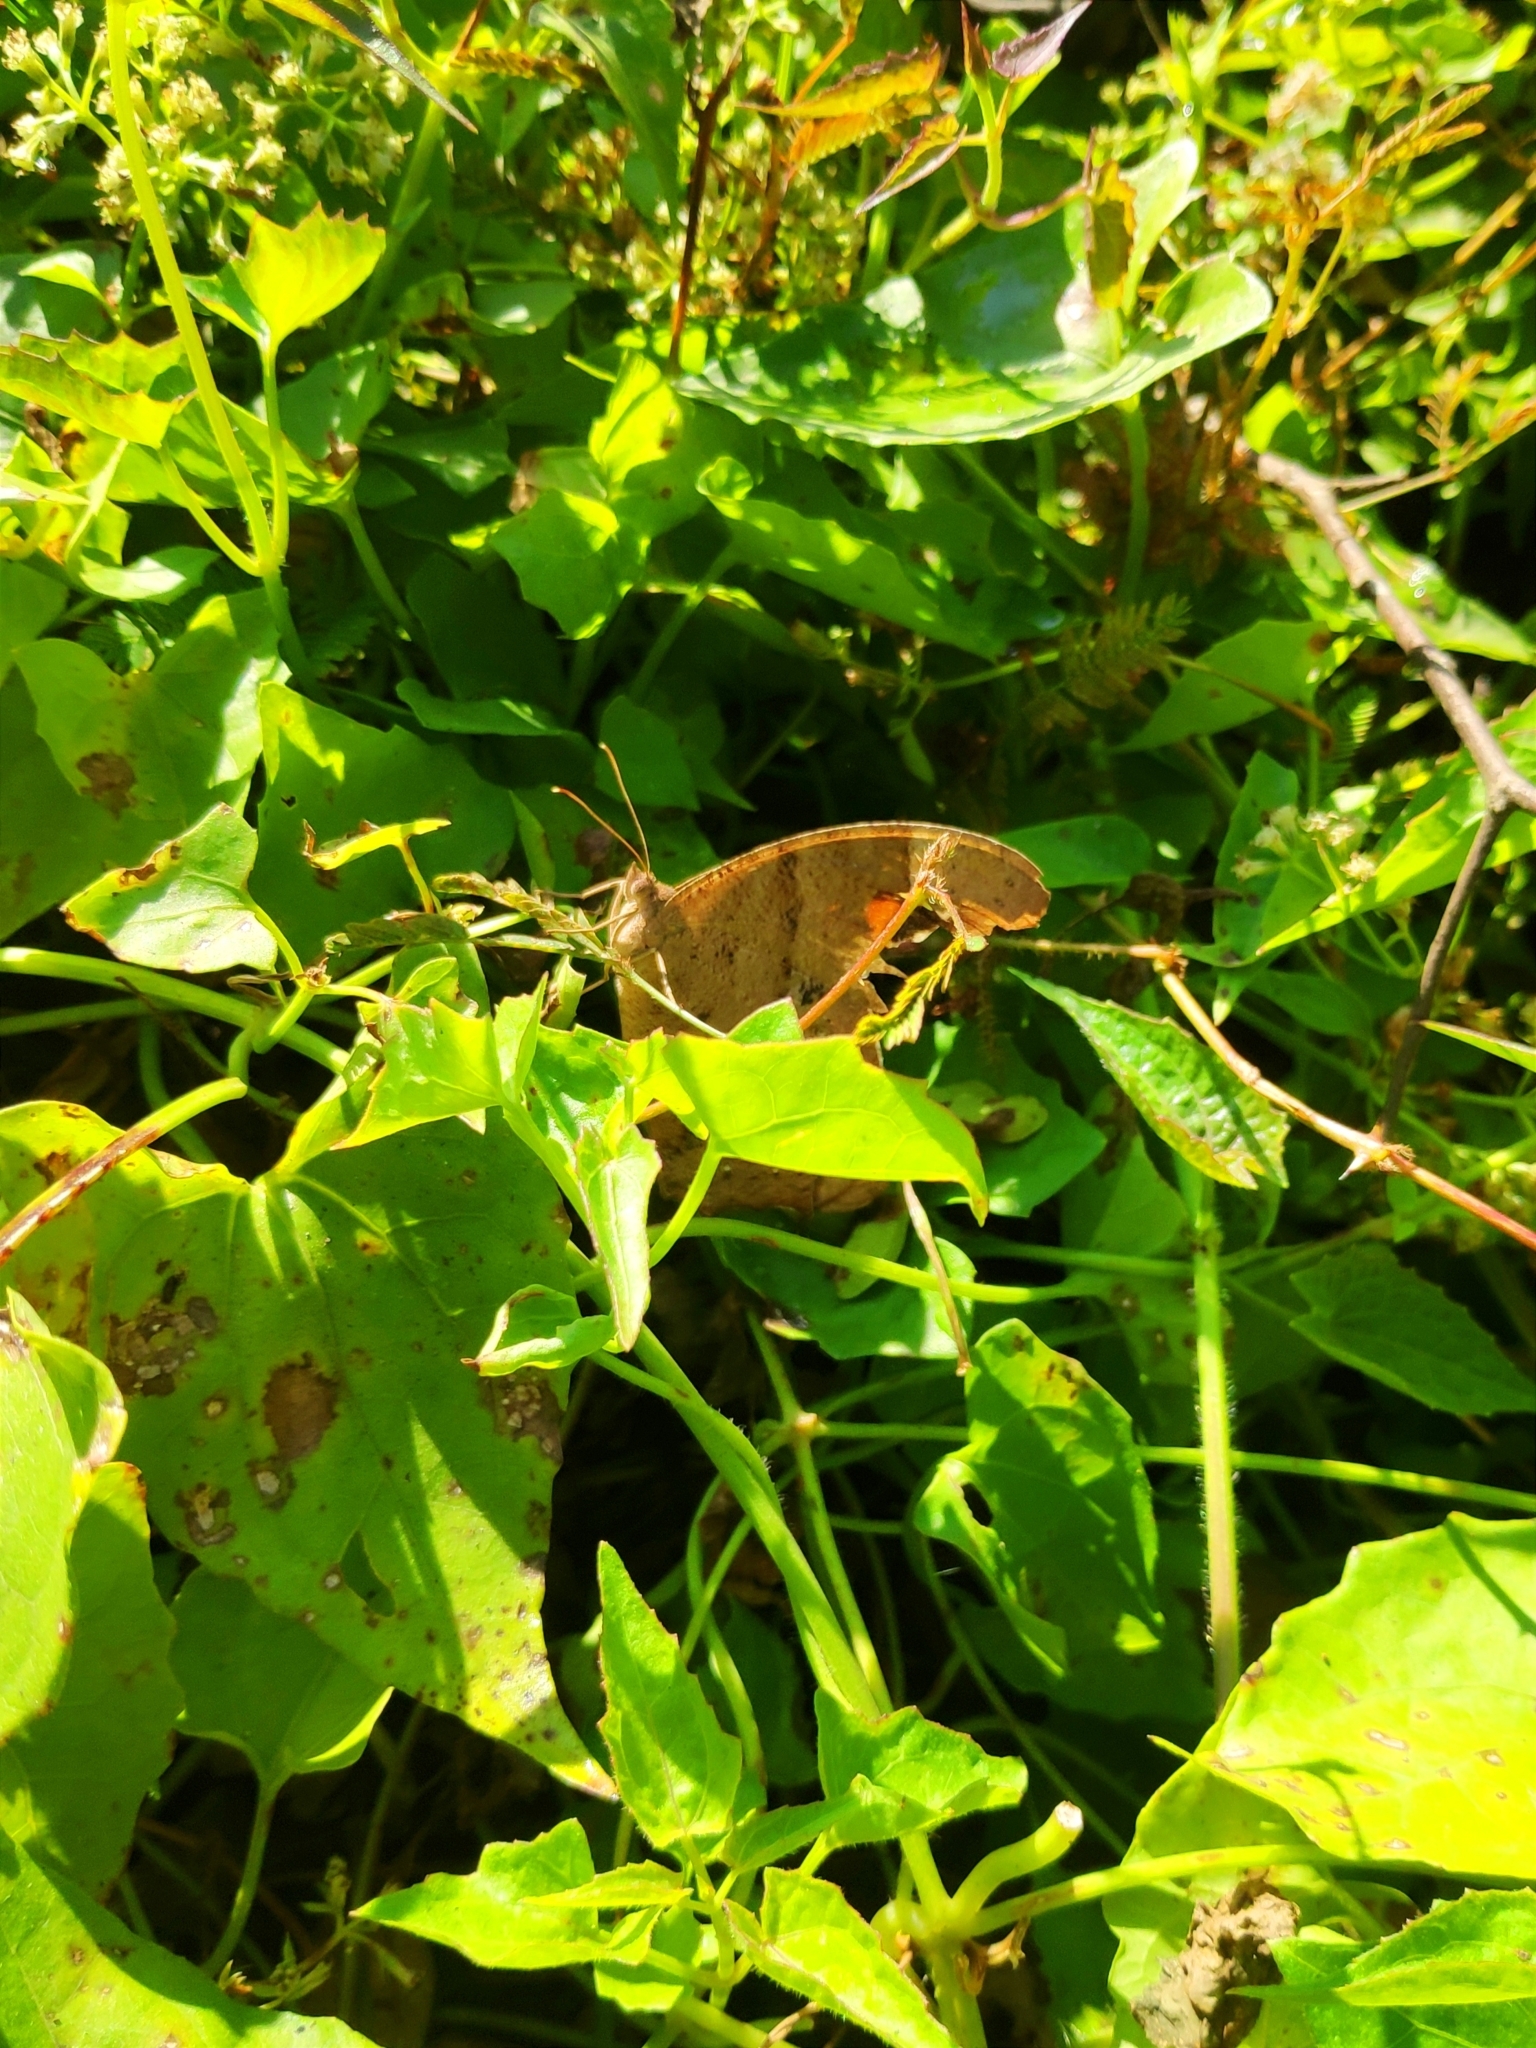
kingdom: Animalia
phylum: Arthropoda
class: Insecta
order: Lepidoptera
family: Nymphalidae
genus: Melanitis
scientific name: Melanitis leda
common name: Twilight brown
